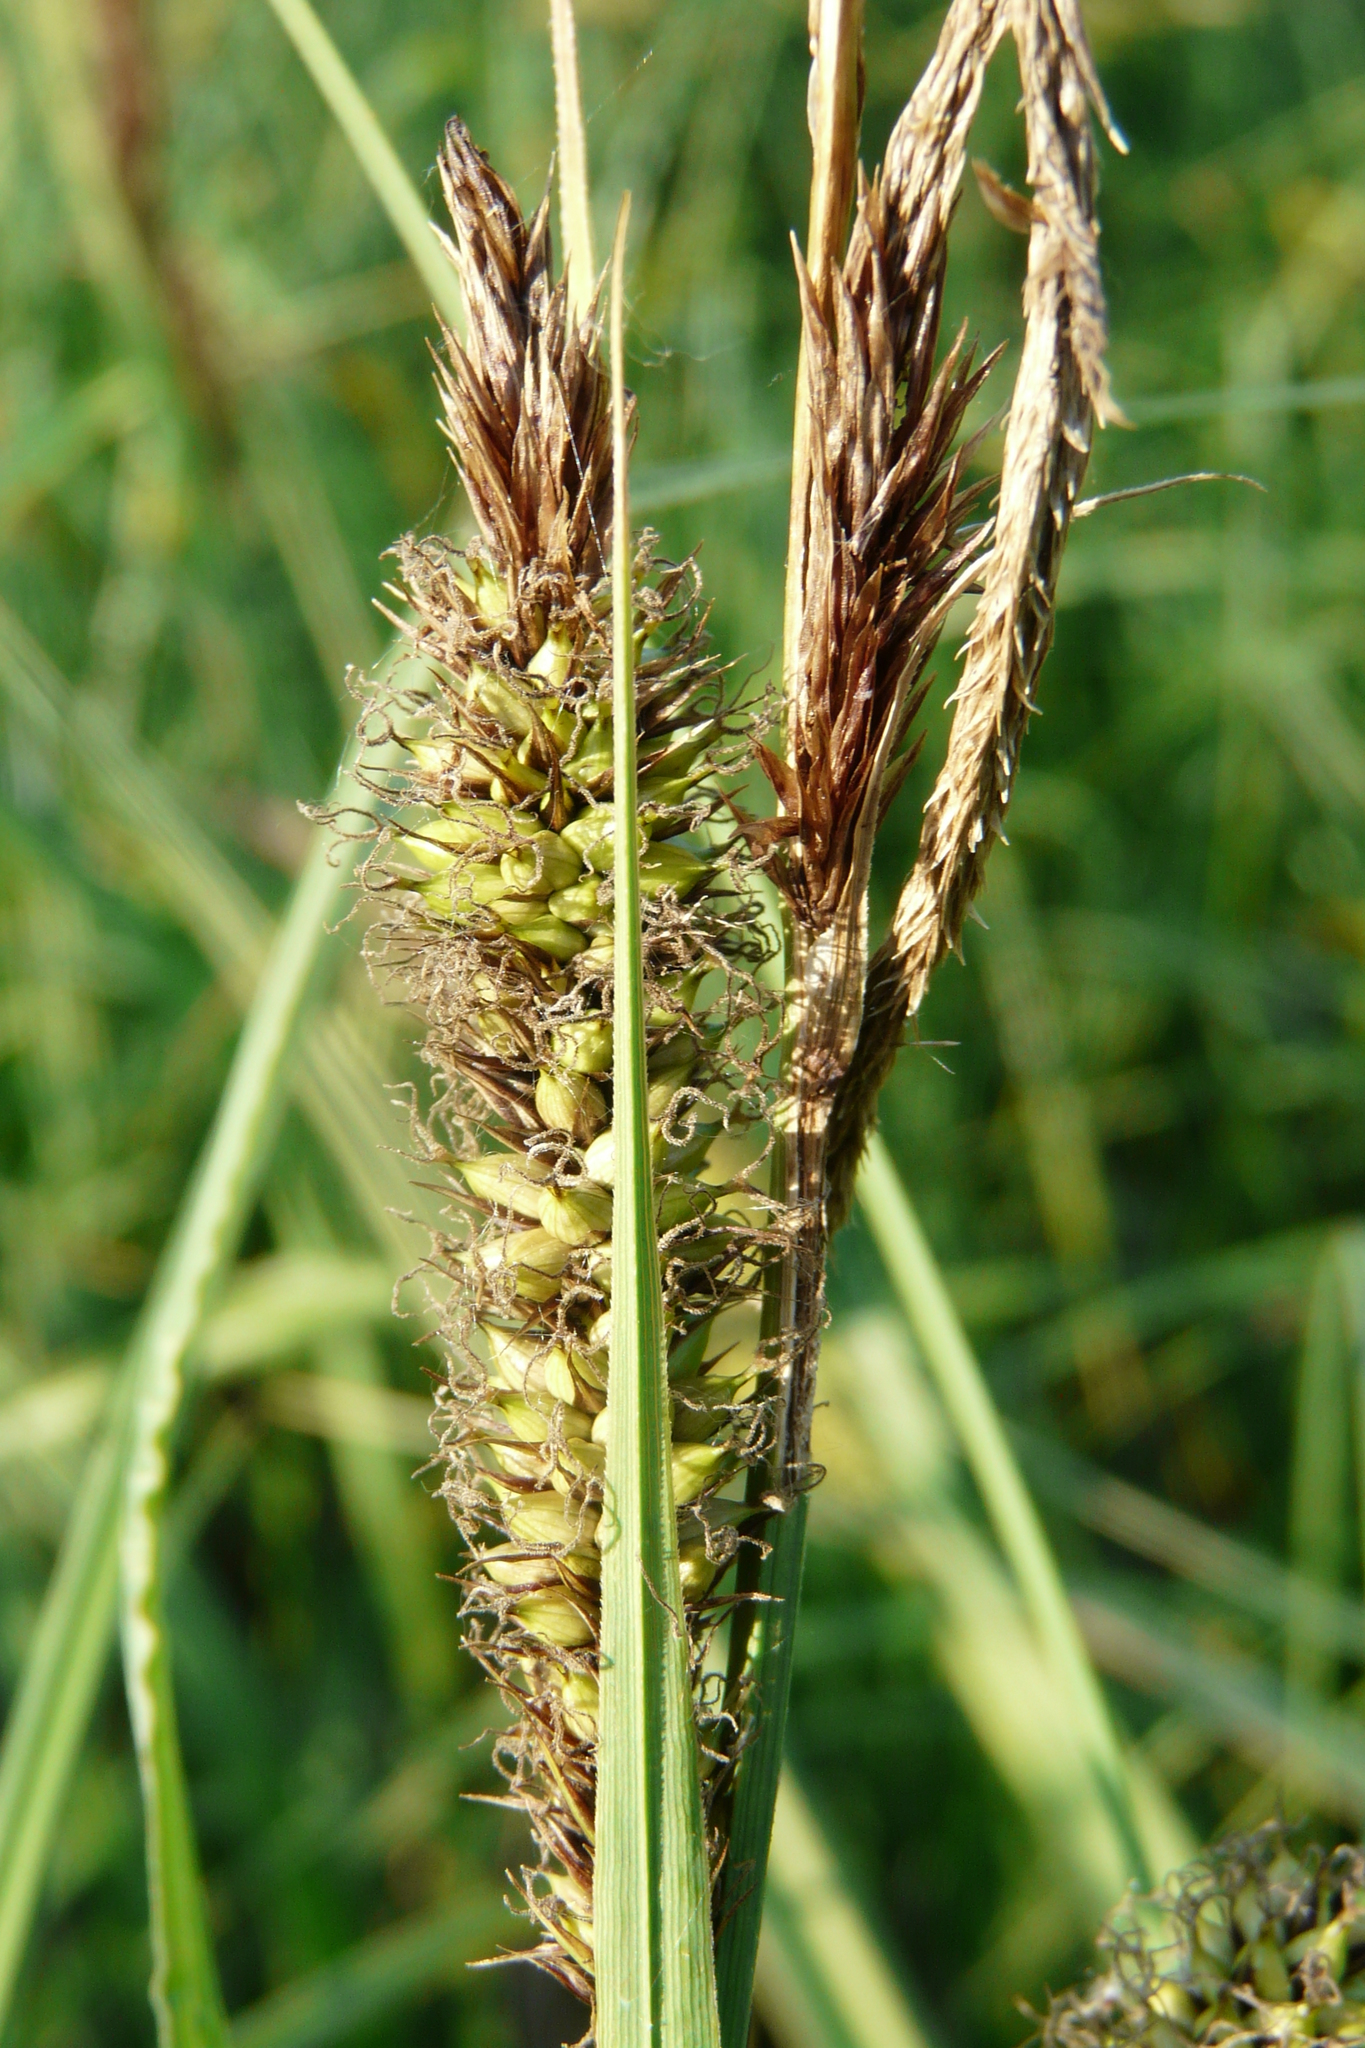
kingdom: Plantae
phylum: Tracheophyta
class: Liliopsida
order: Poales
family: Cyperaceae
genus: Carex
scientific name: Carex riparia
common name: Greater pond-sedge
